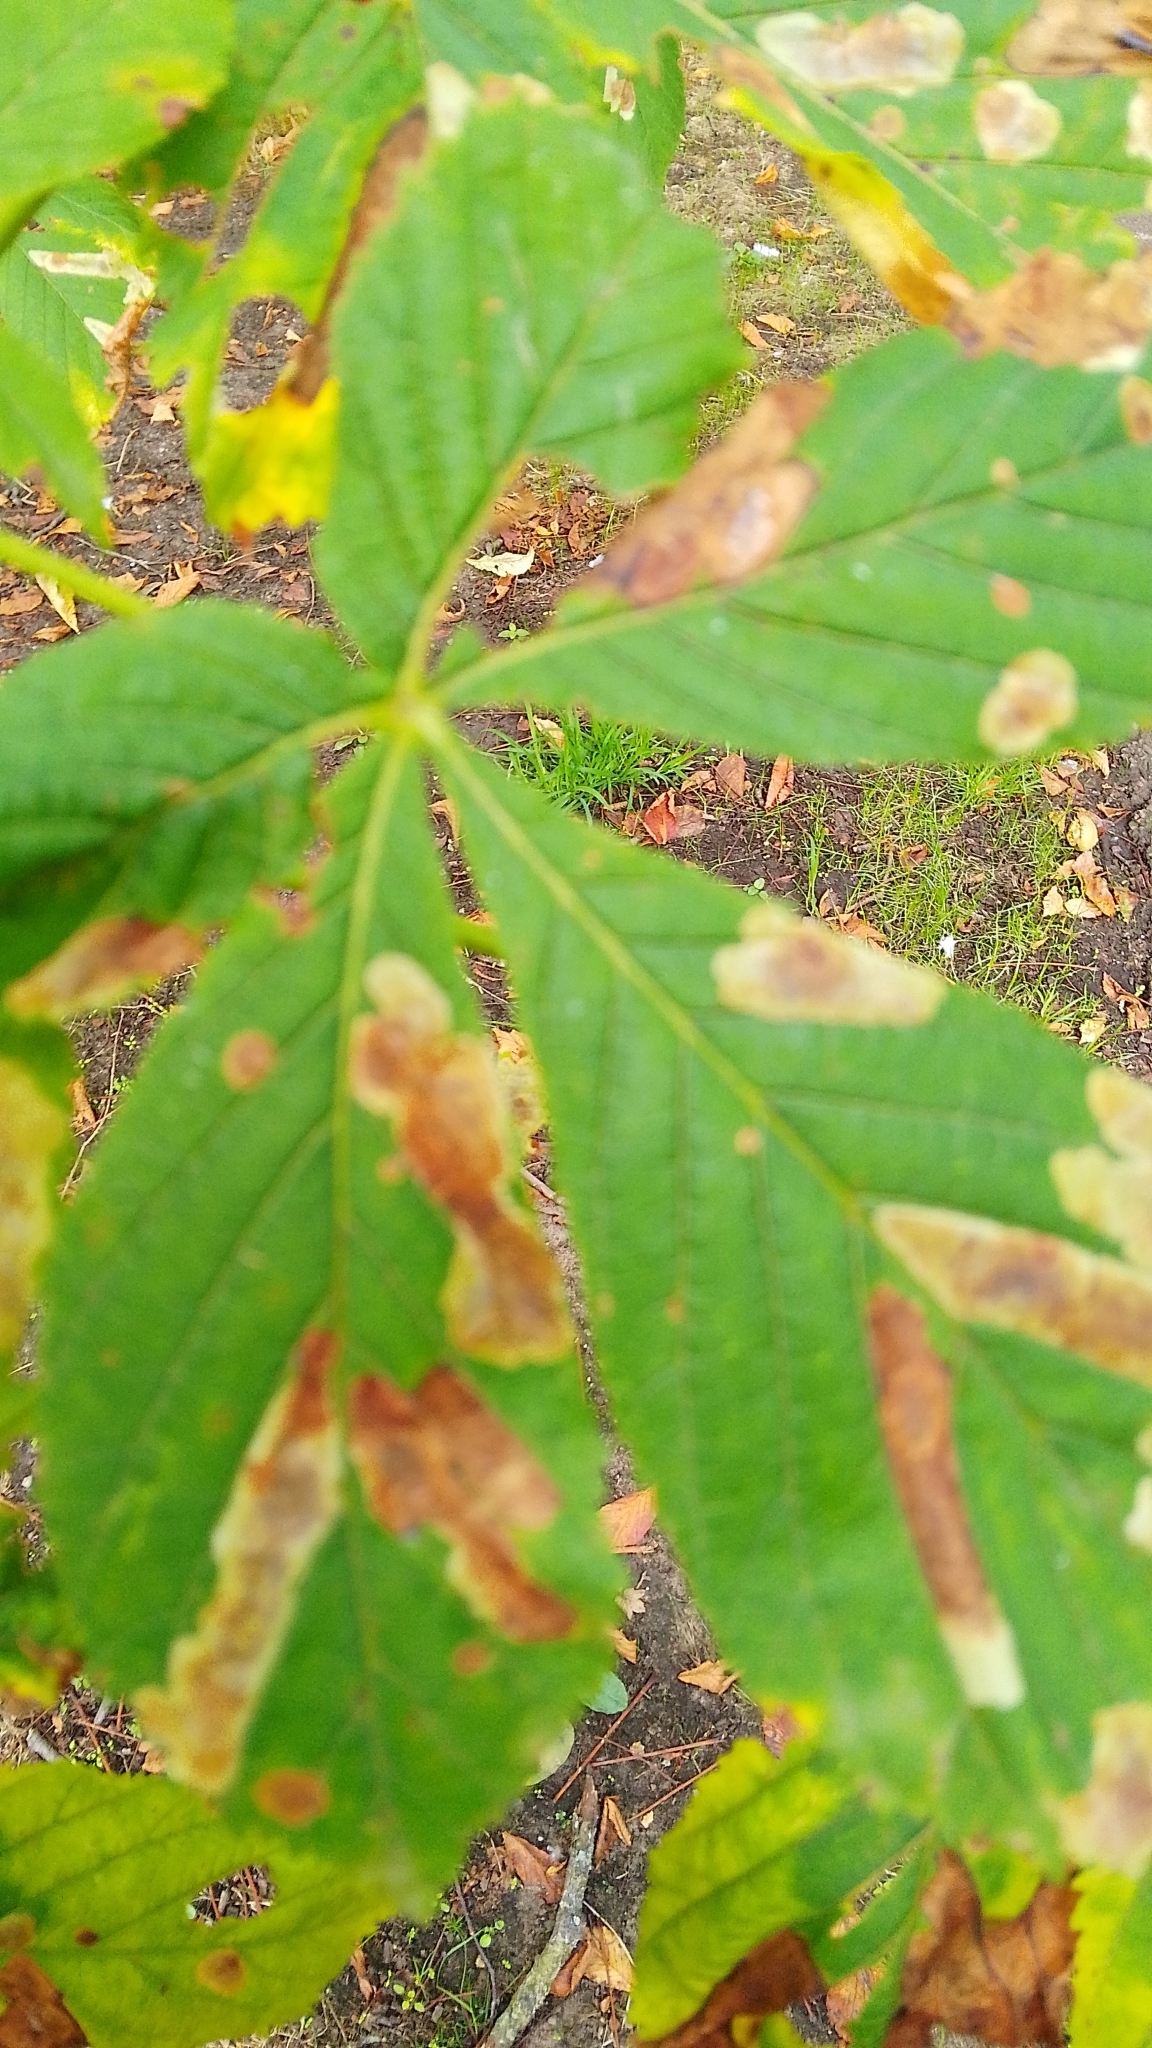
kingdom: Animalia
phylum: Arthropoda
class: Insecta
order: Lepidoptera
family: Gracillariidae
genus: Cameraria
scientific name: Cameraria ohridella
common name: Horse-chestnut leaf-miner
